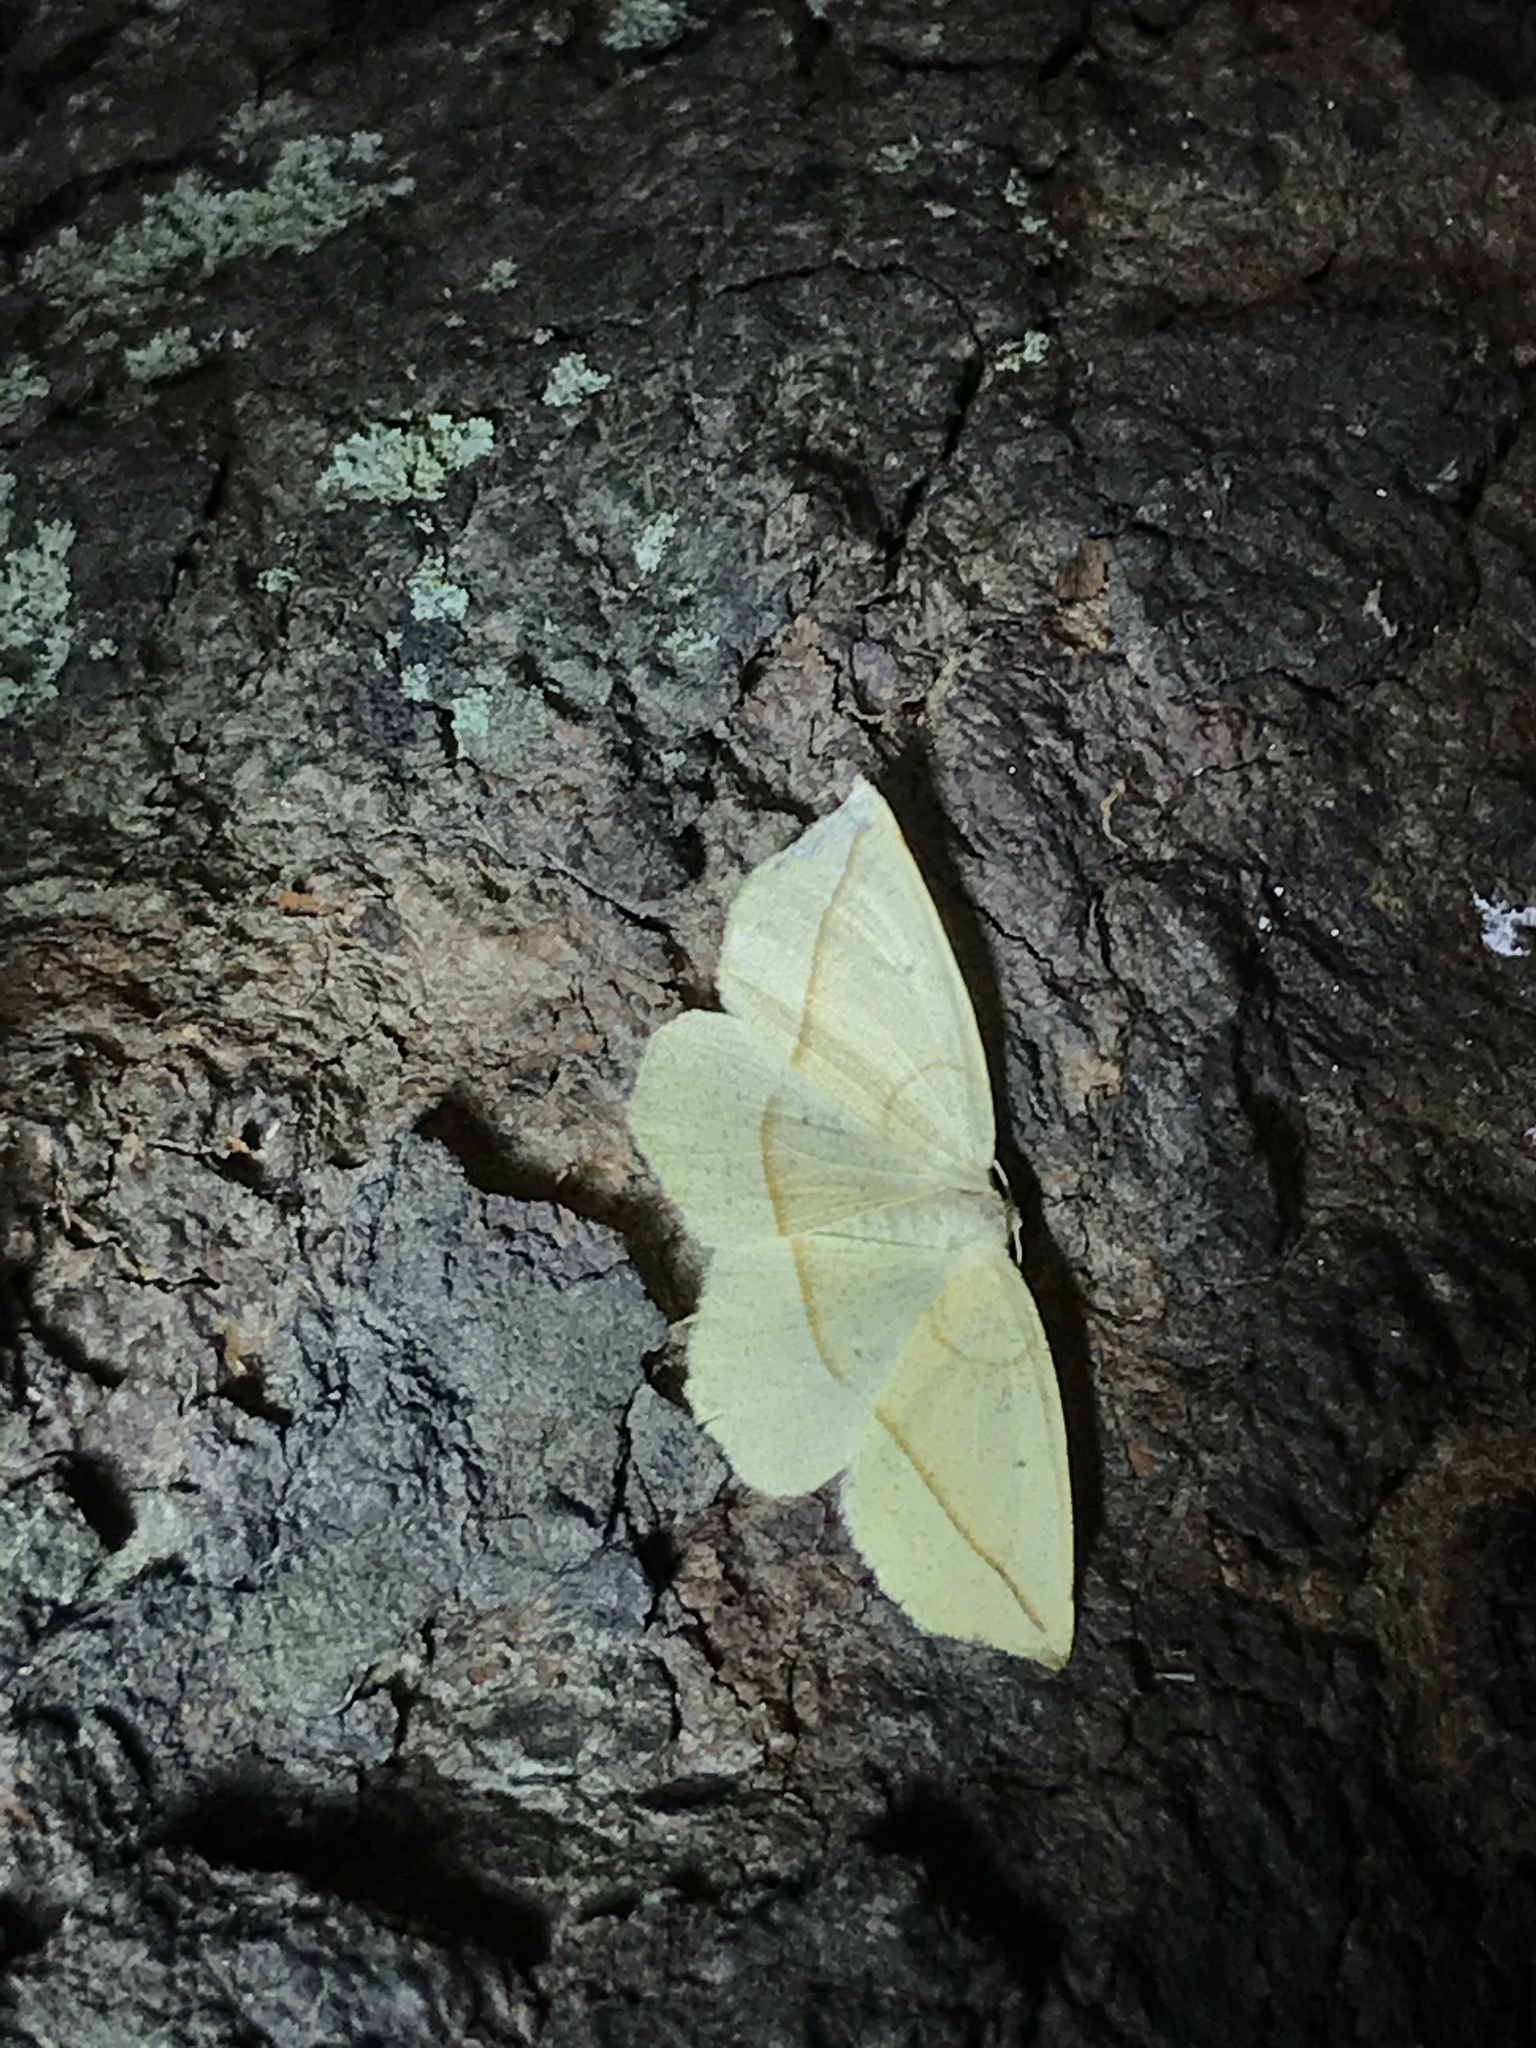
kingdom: Animalia
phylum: Arthropoda
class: Insecta
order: Lepidoptera
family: Geometridae
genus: Eusarca
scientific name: Eusarca confusaria
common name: Confused eusarca
